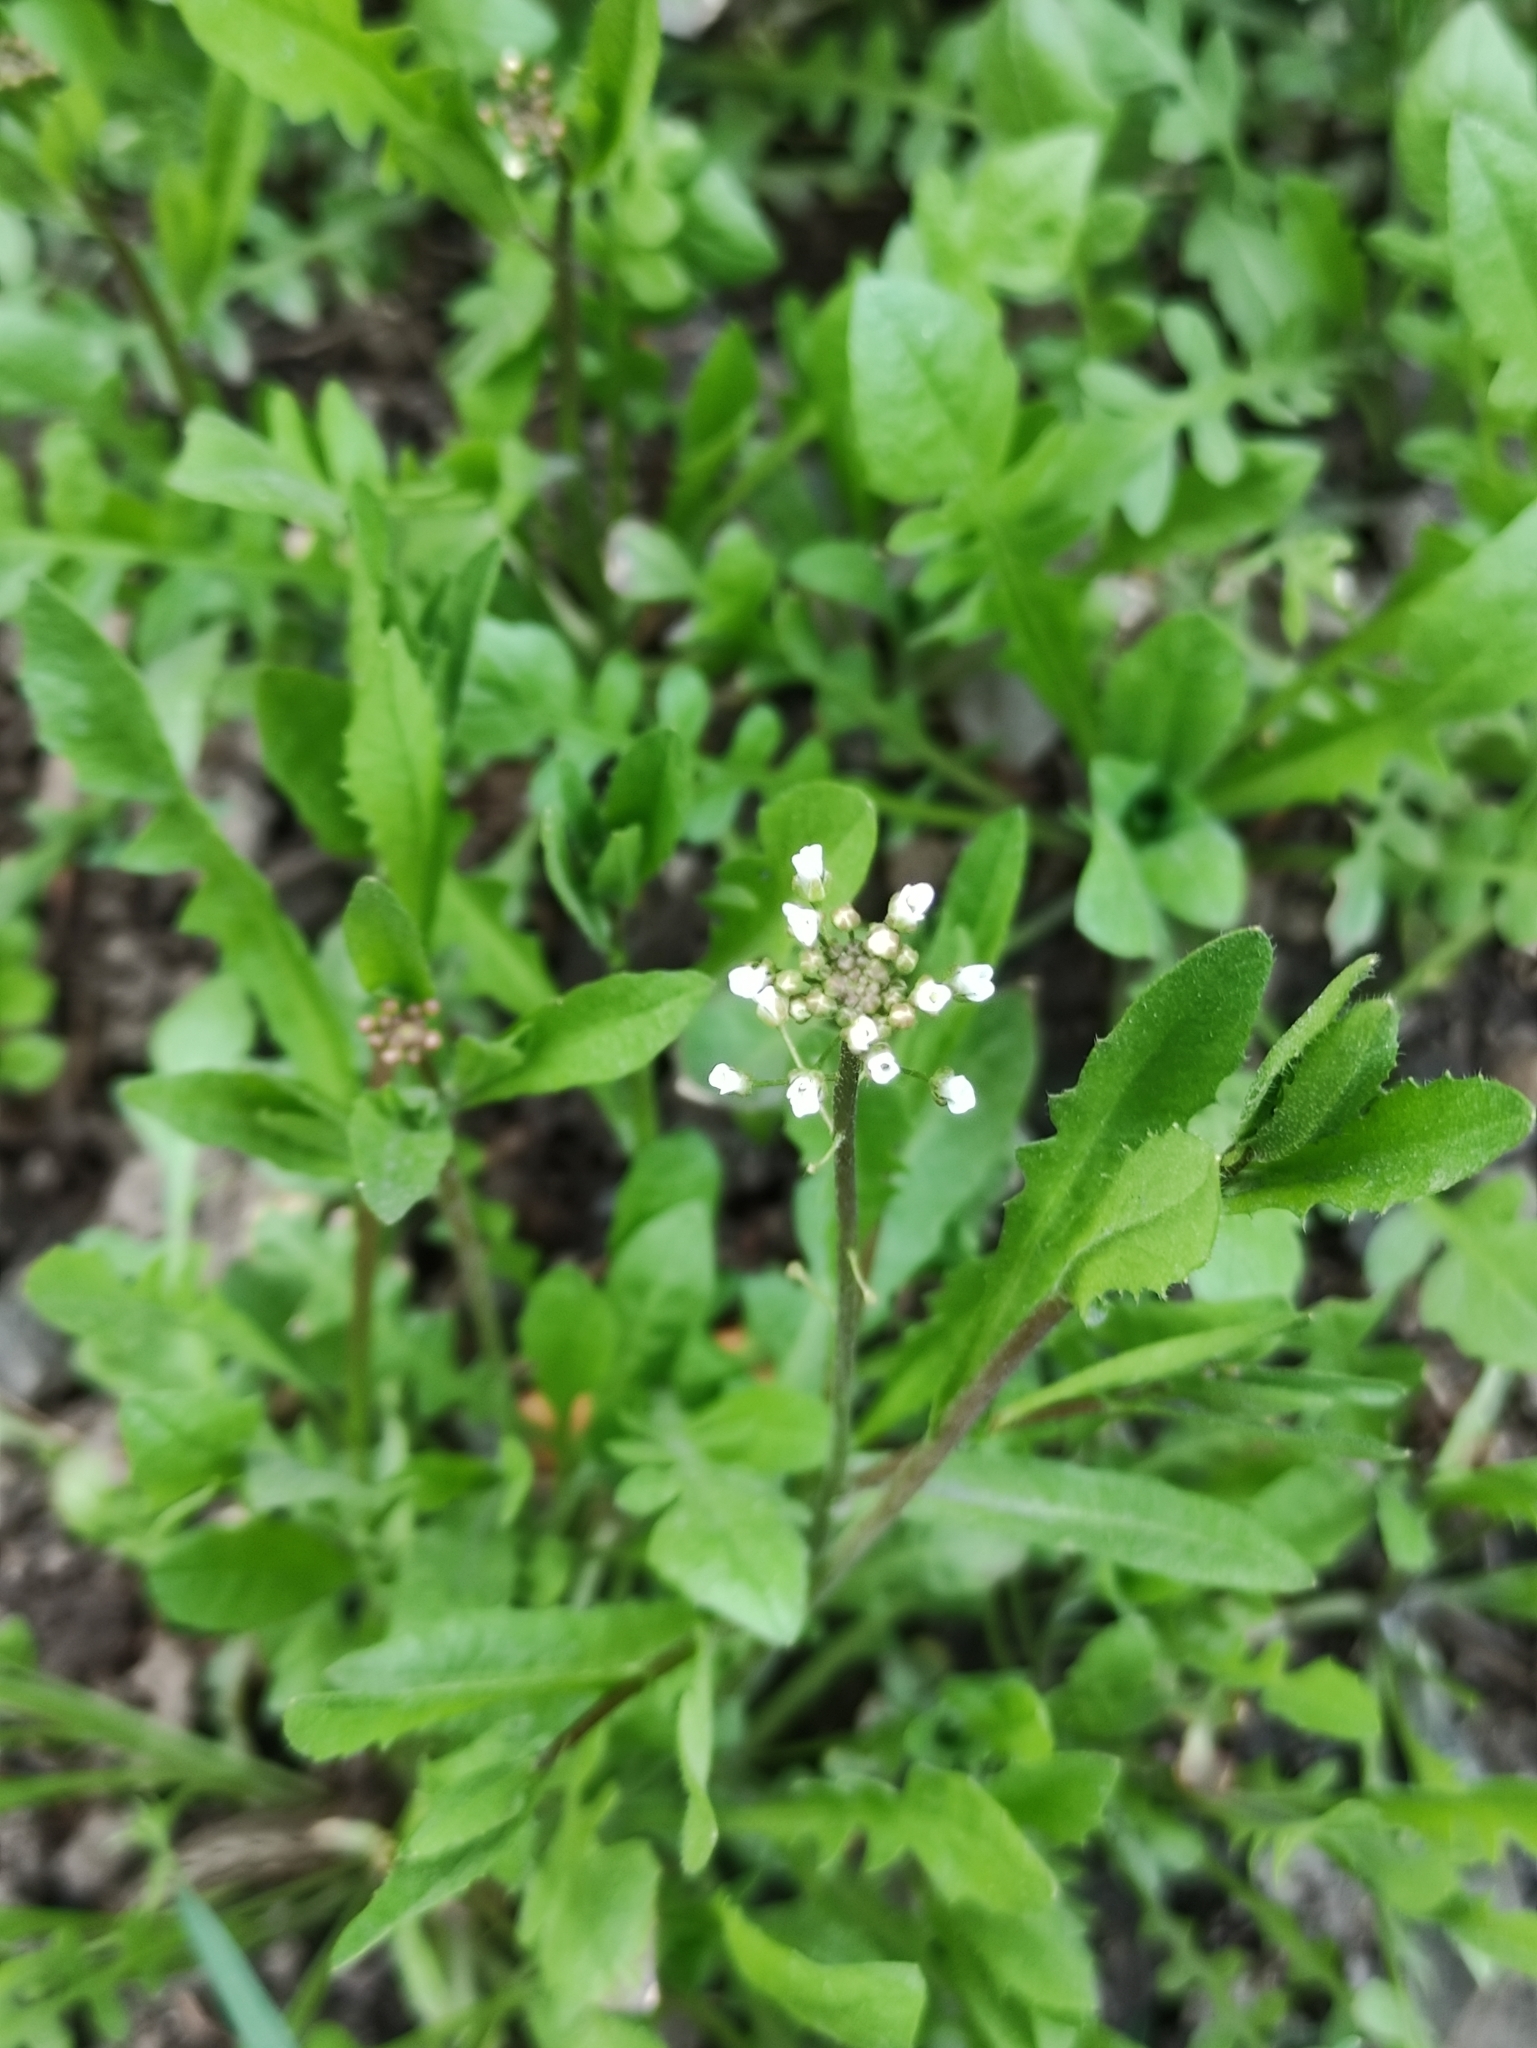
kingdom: Plantae
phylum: Tracheophyta
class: Magnoliopsida
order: Brassicales
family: Brassicaceae
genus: Capsella
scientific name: Capsella bursa-pastoris
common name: Shepherd's purse
